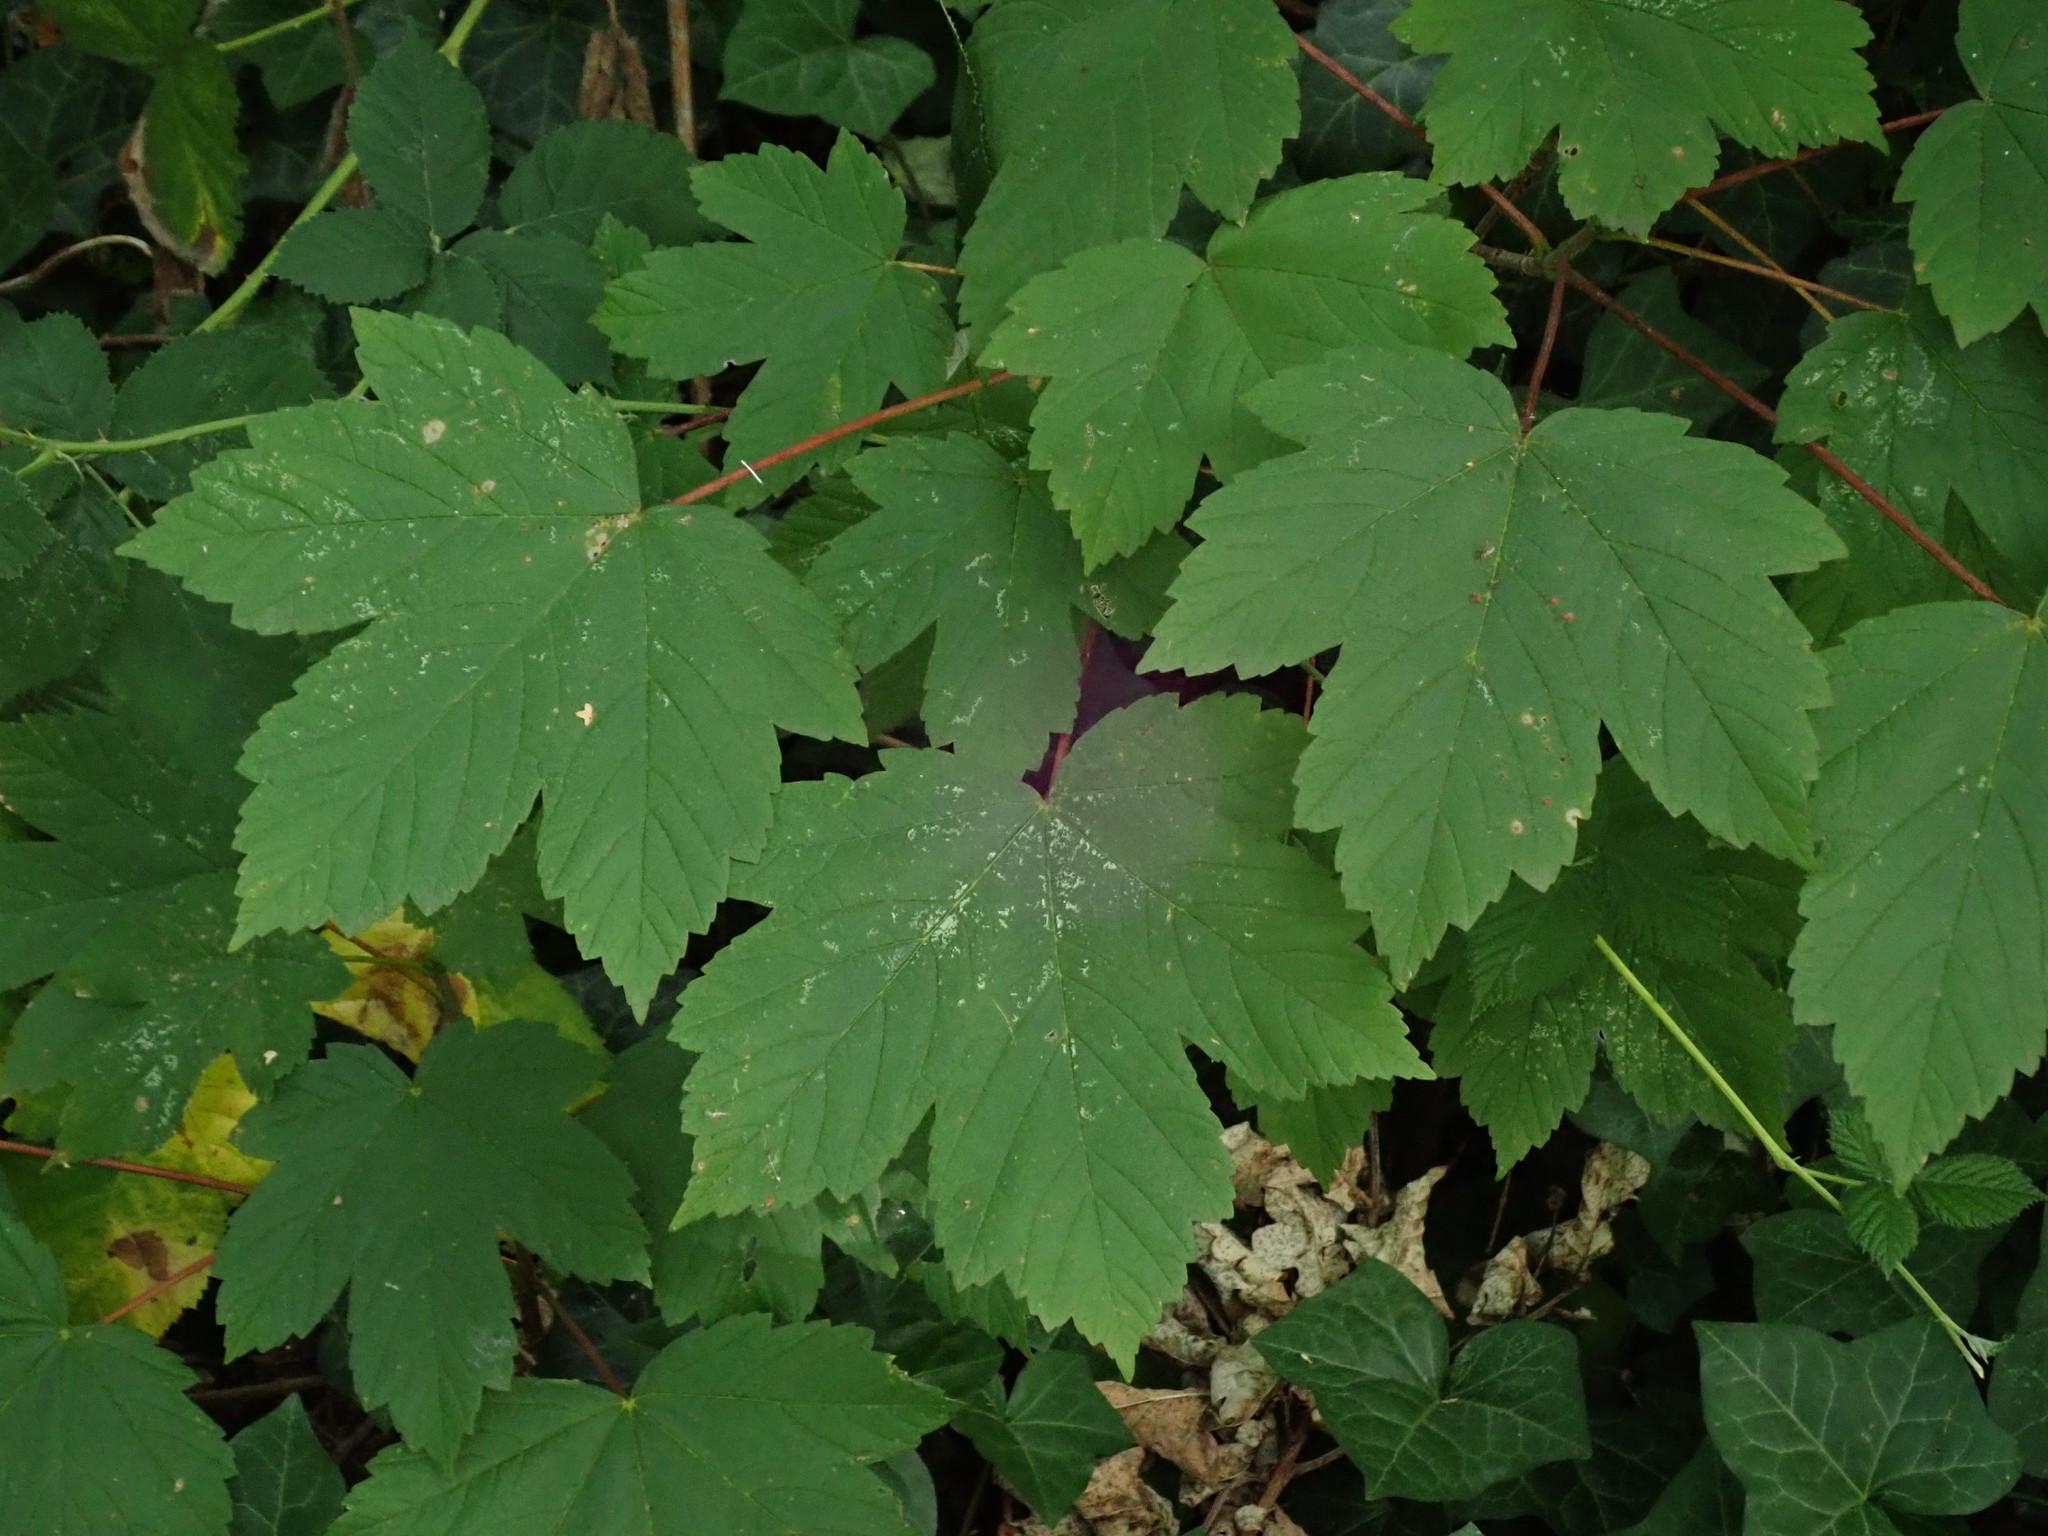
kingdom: Plantae
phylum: Tracheophyta
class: Magnoliopsida
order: Sapindales
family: Sapindaceae
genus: Acer
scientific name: Acer pseudoplatanus
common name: Sycamore
